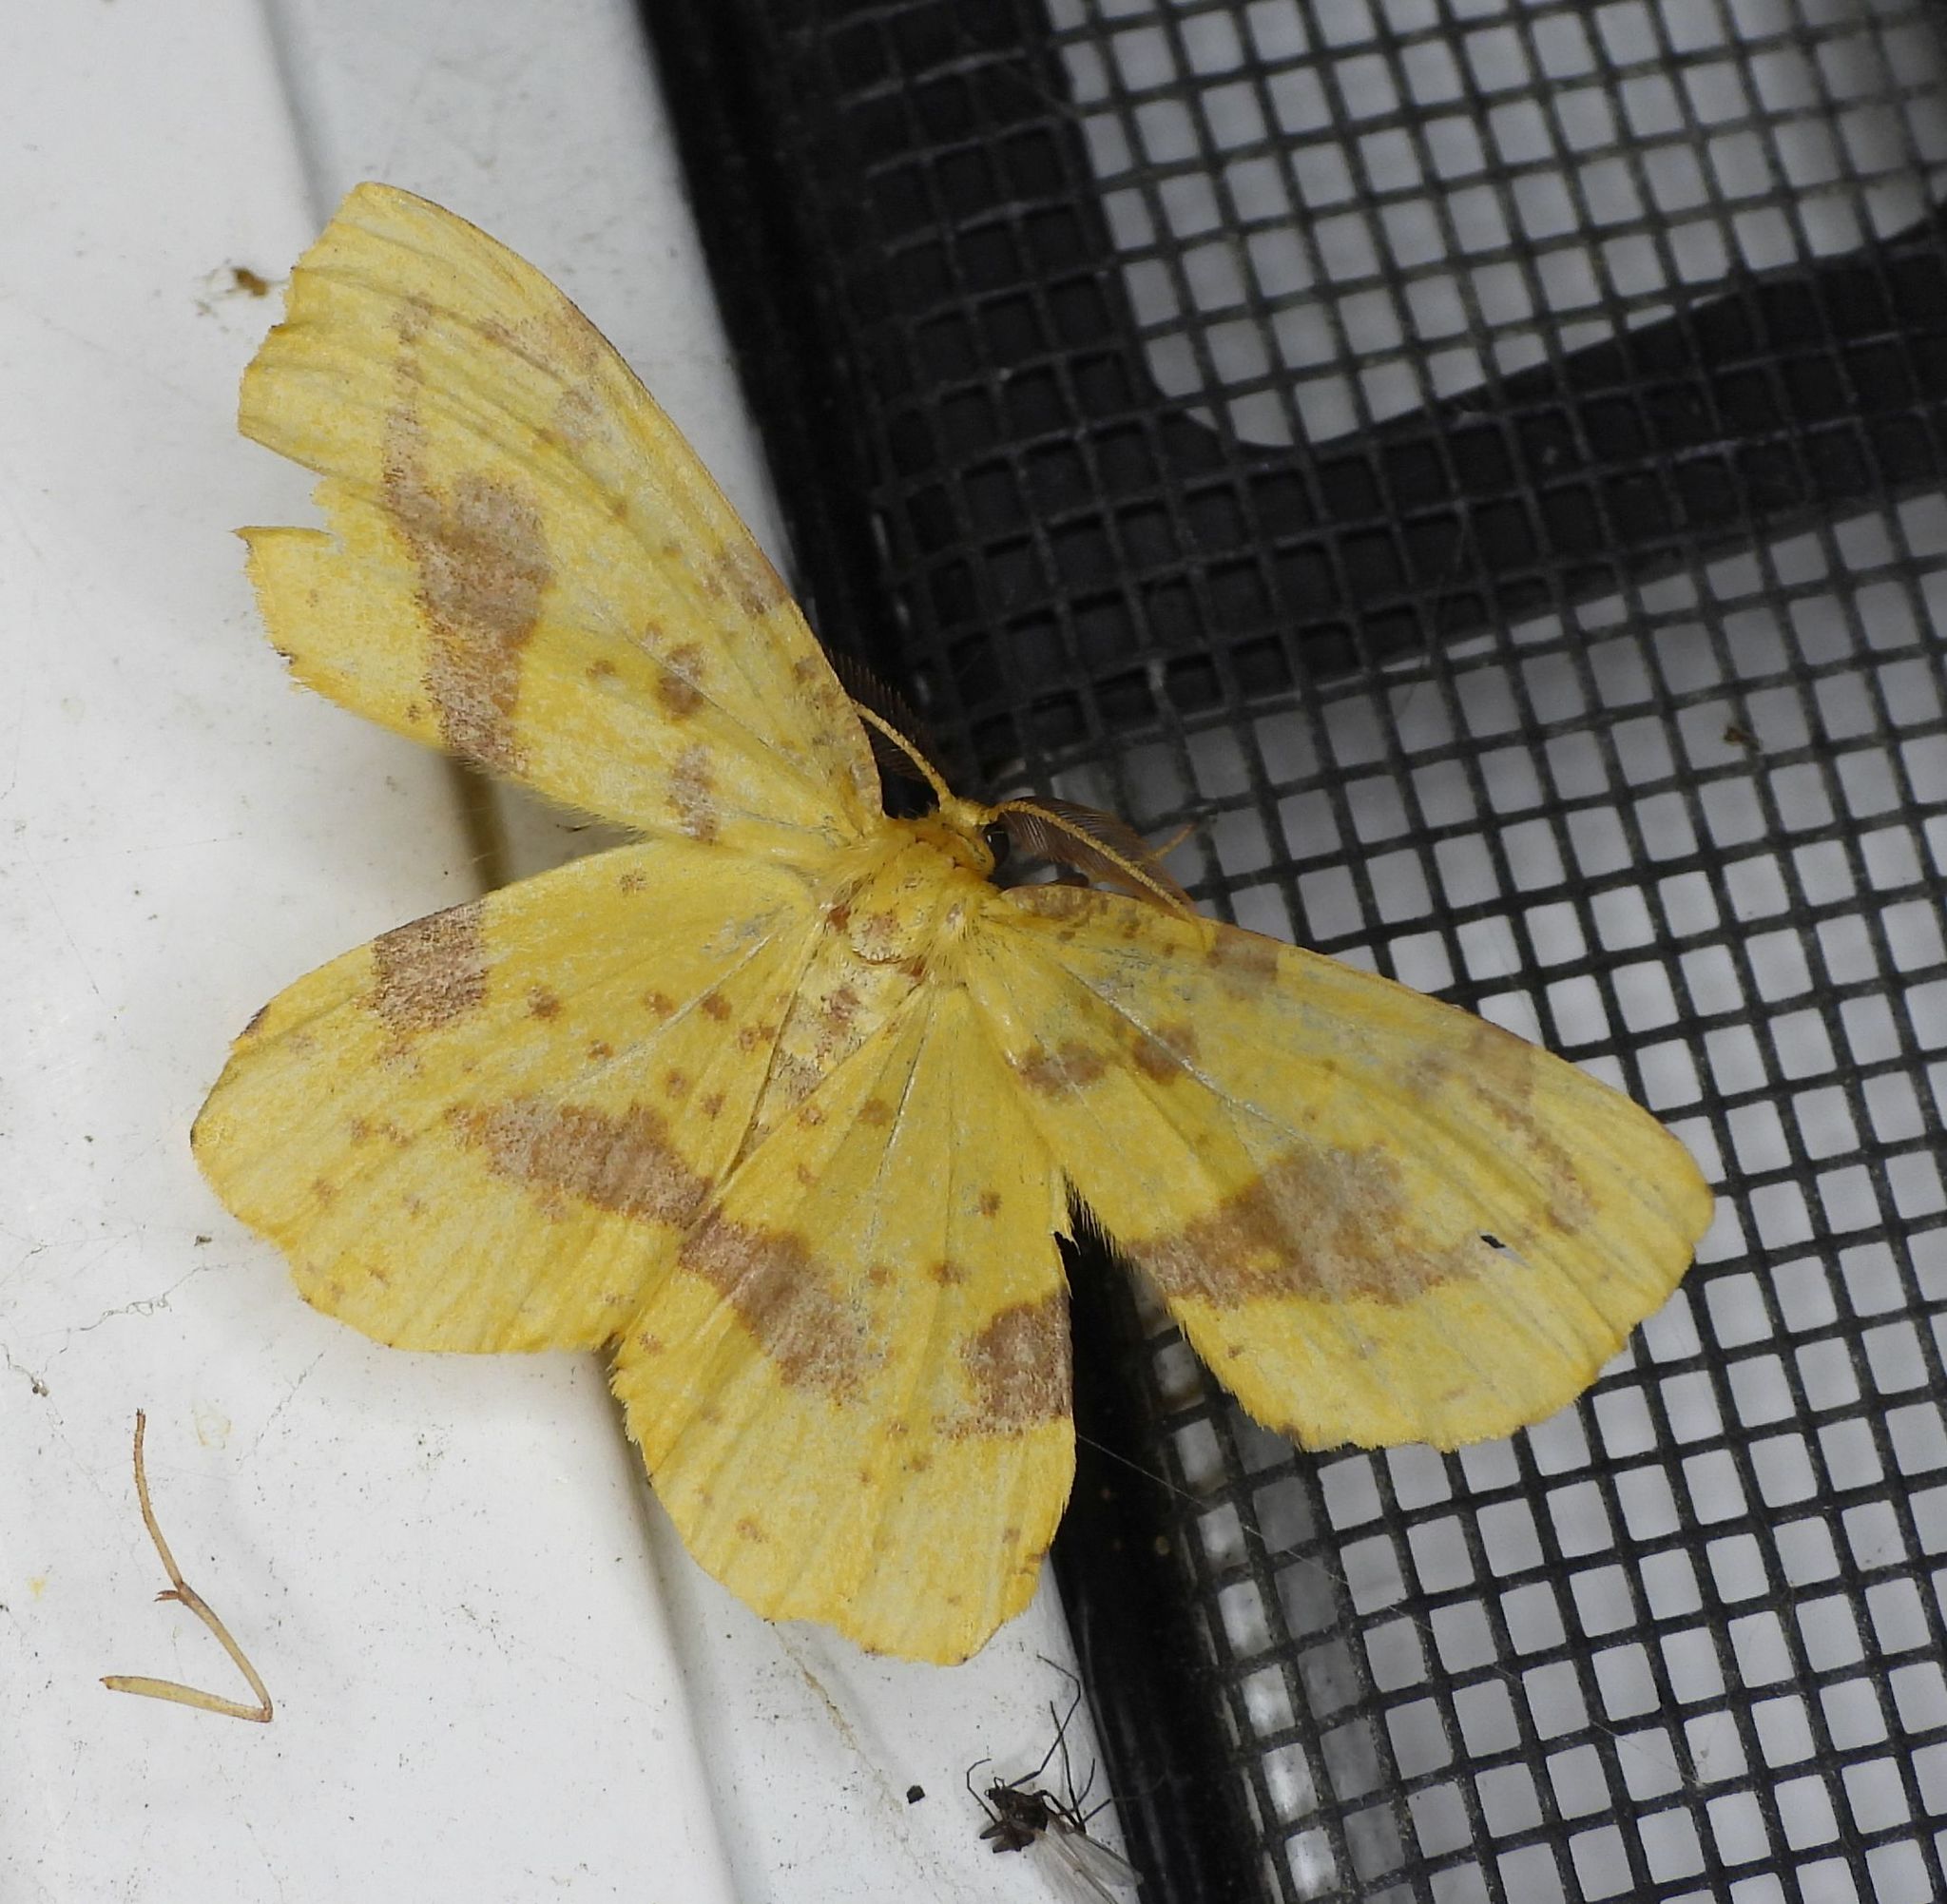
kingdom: Animalia
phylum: Arthropoda
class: Insecta
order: Lepidoptera
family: Geometridae
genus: Xanthotype
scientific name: Xanthotype
